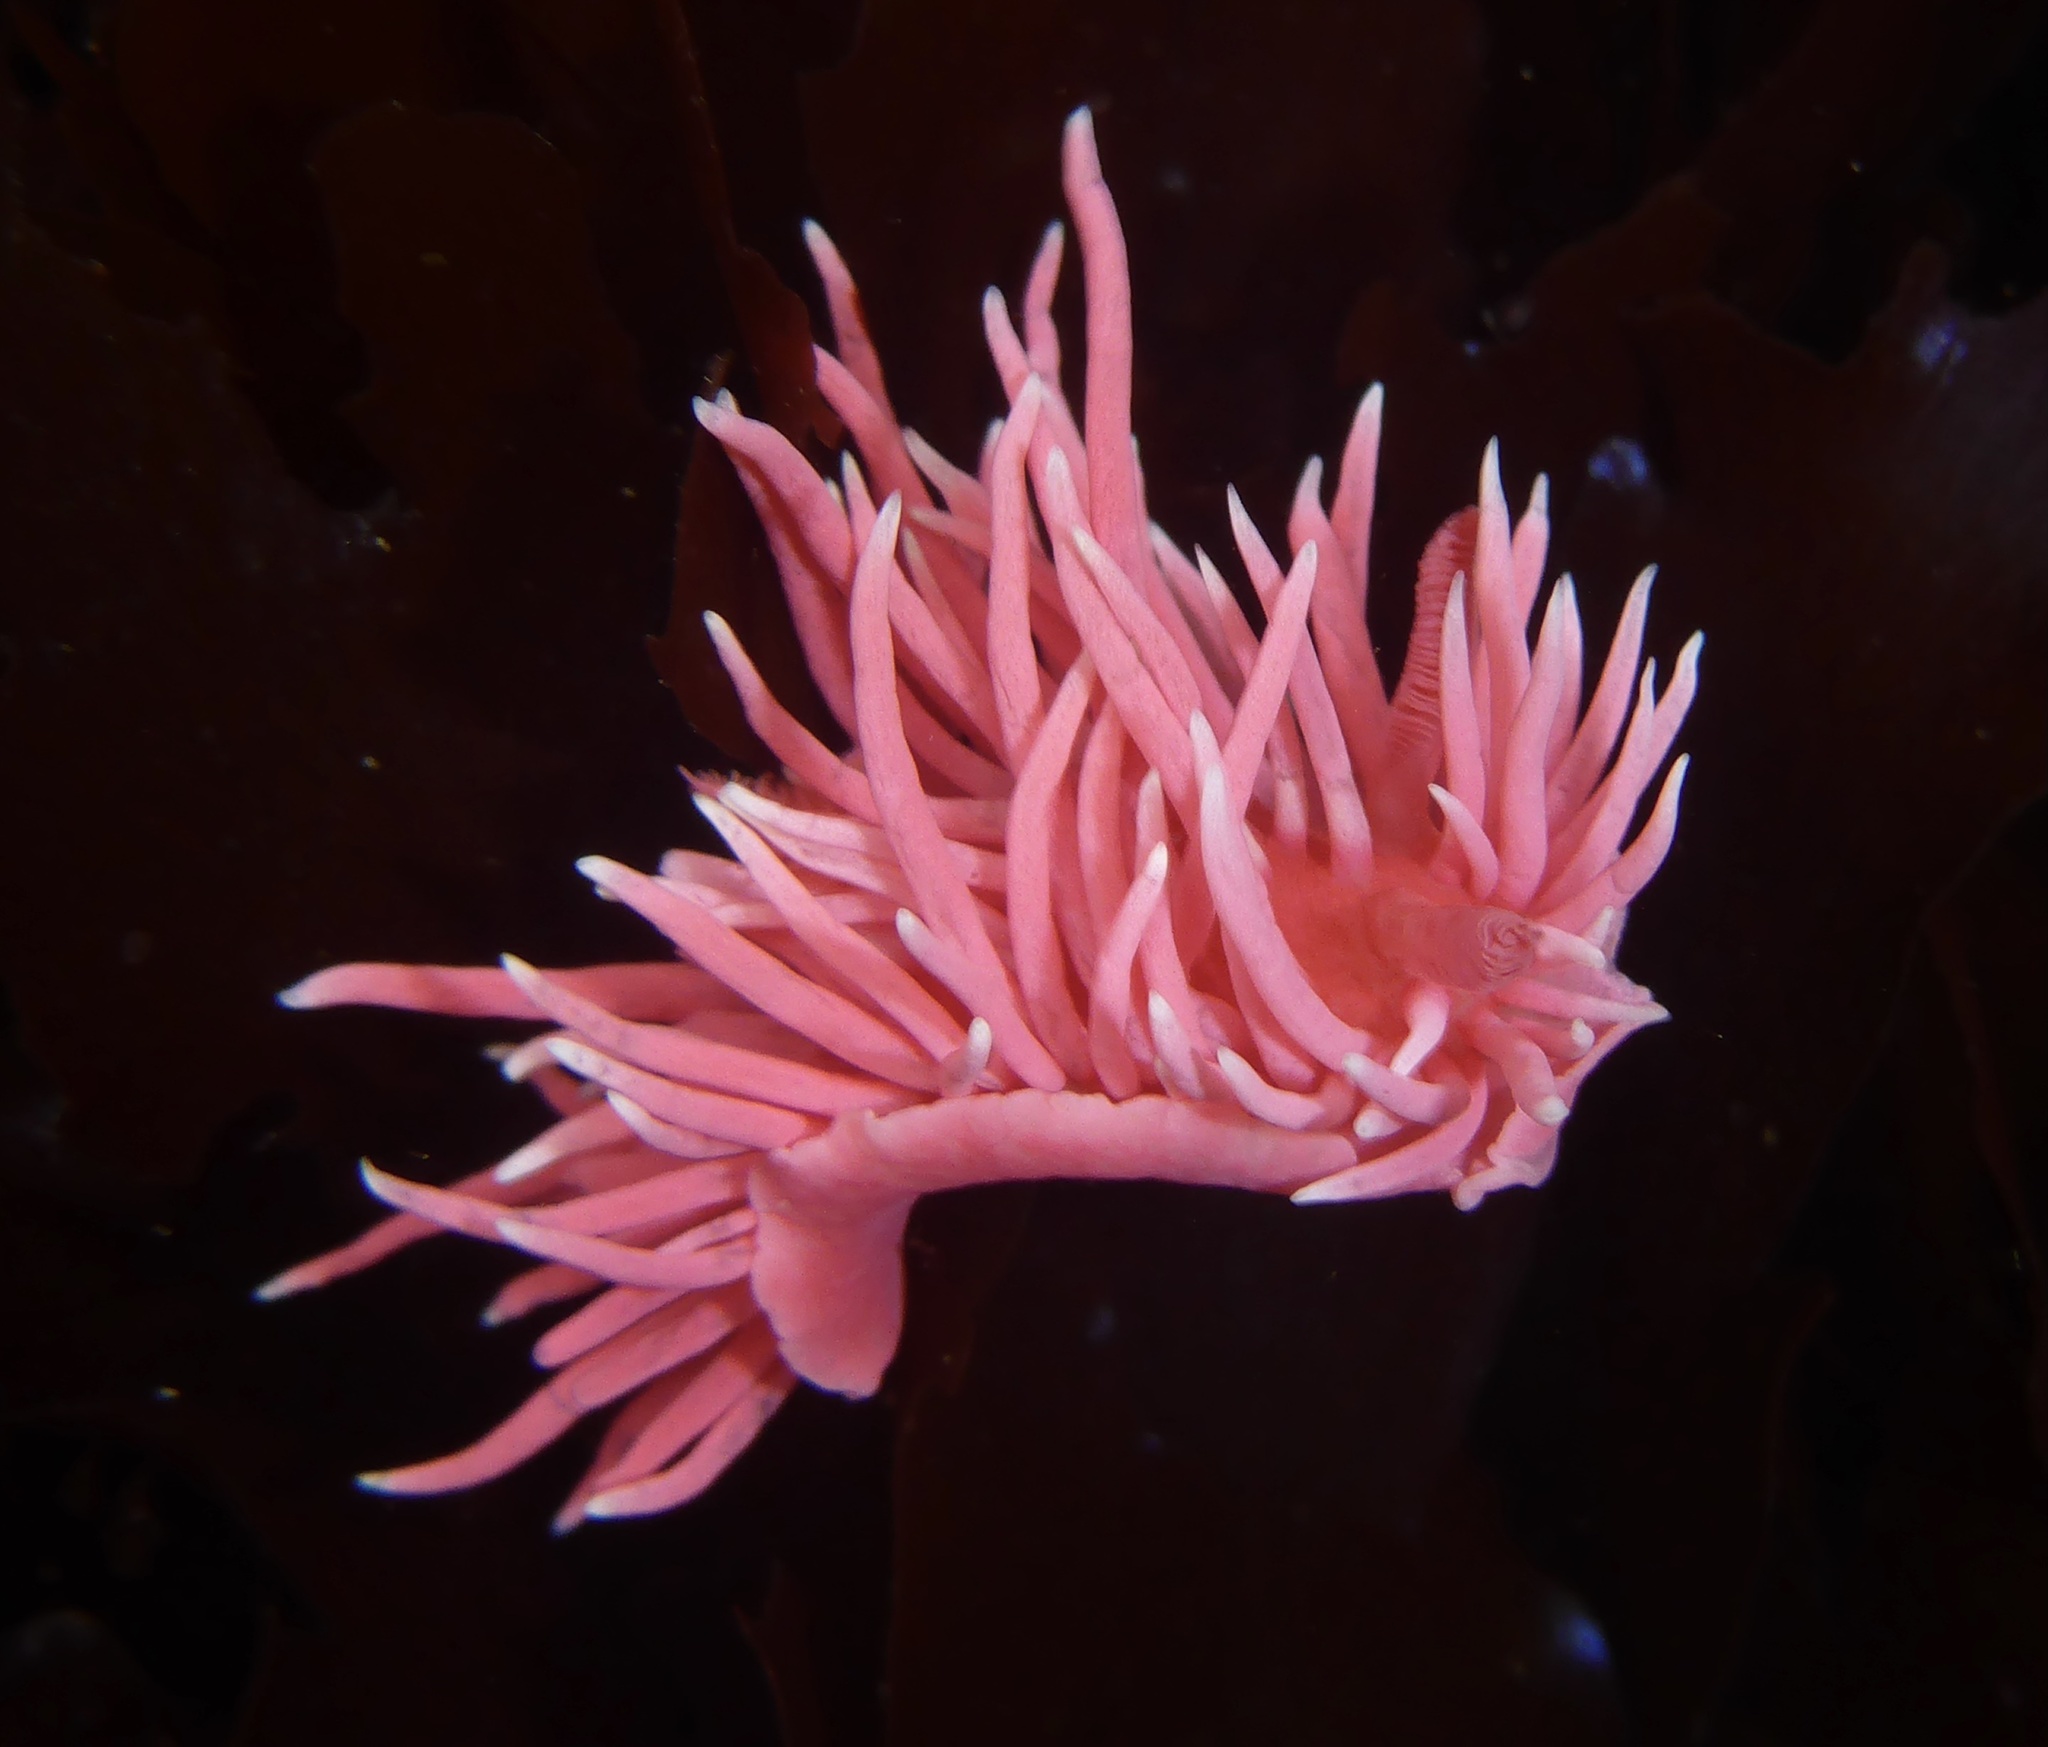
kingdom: Animalia
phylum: Mollusca
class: Gastropoda
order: Nudibranchia
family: Goniodorididae
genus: Okenia
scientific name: Okenia
